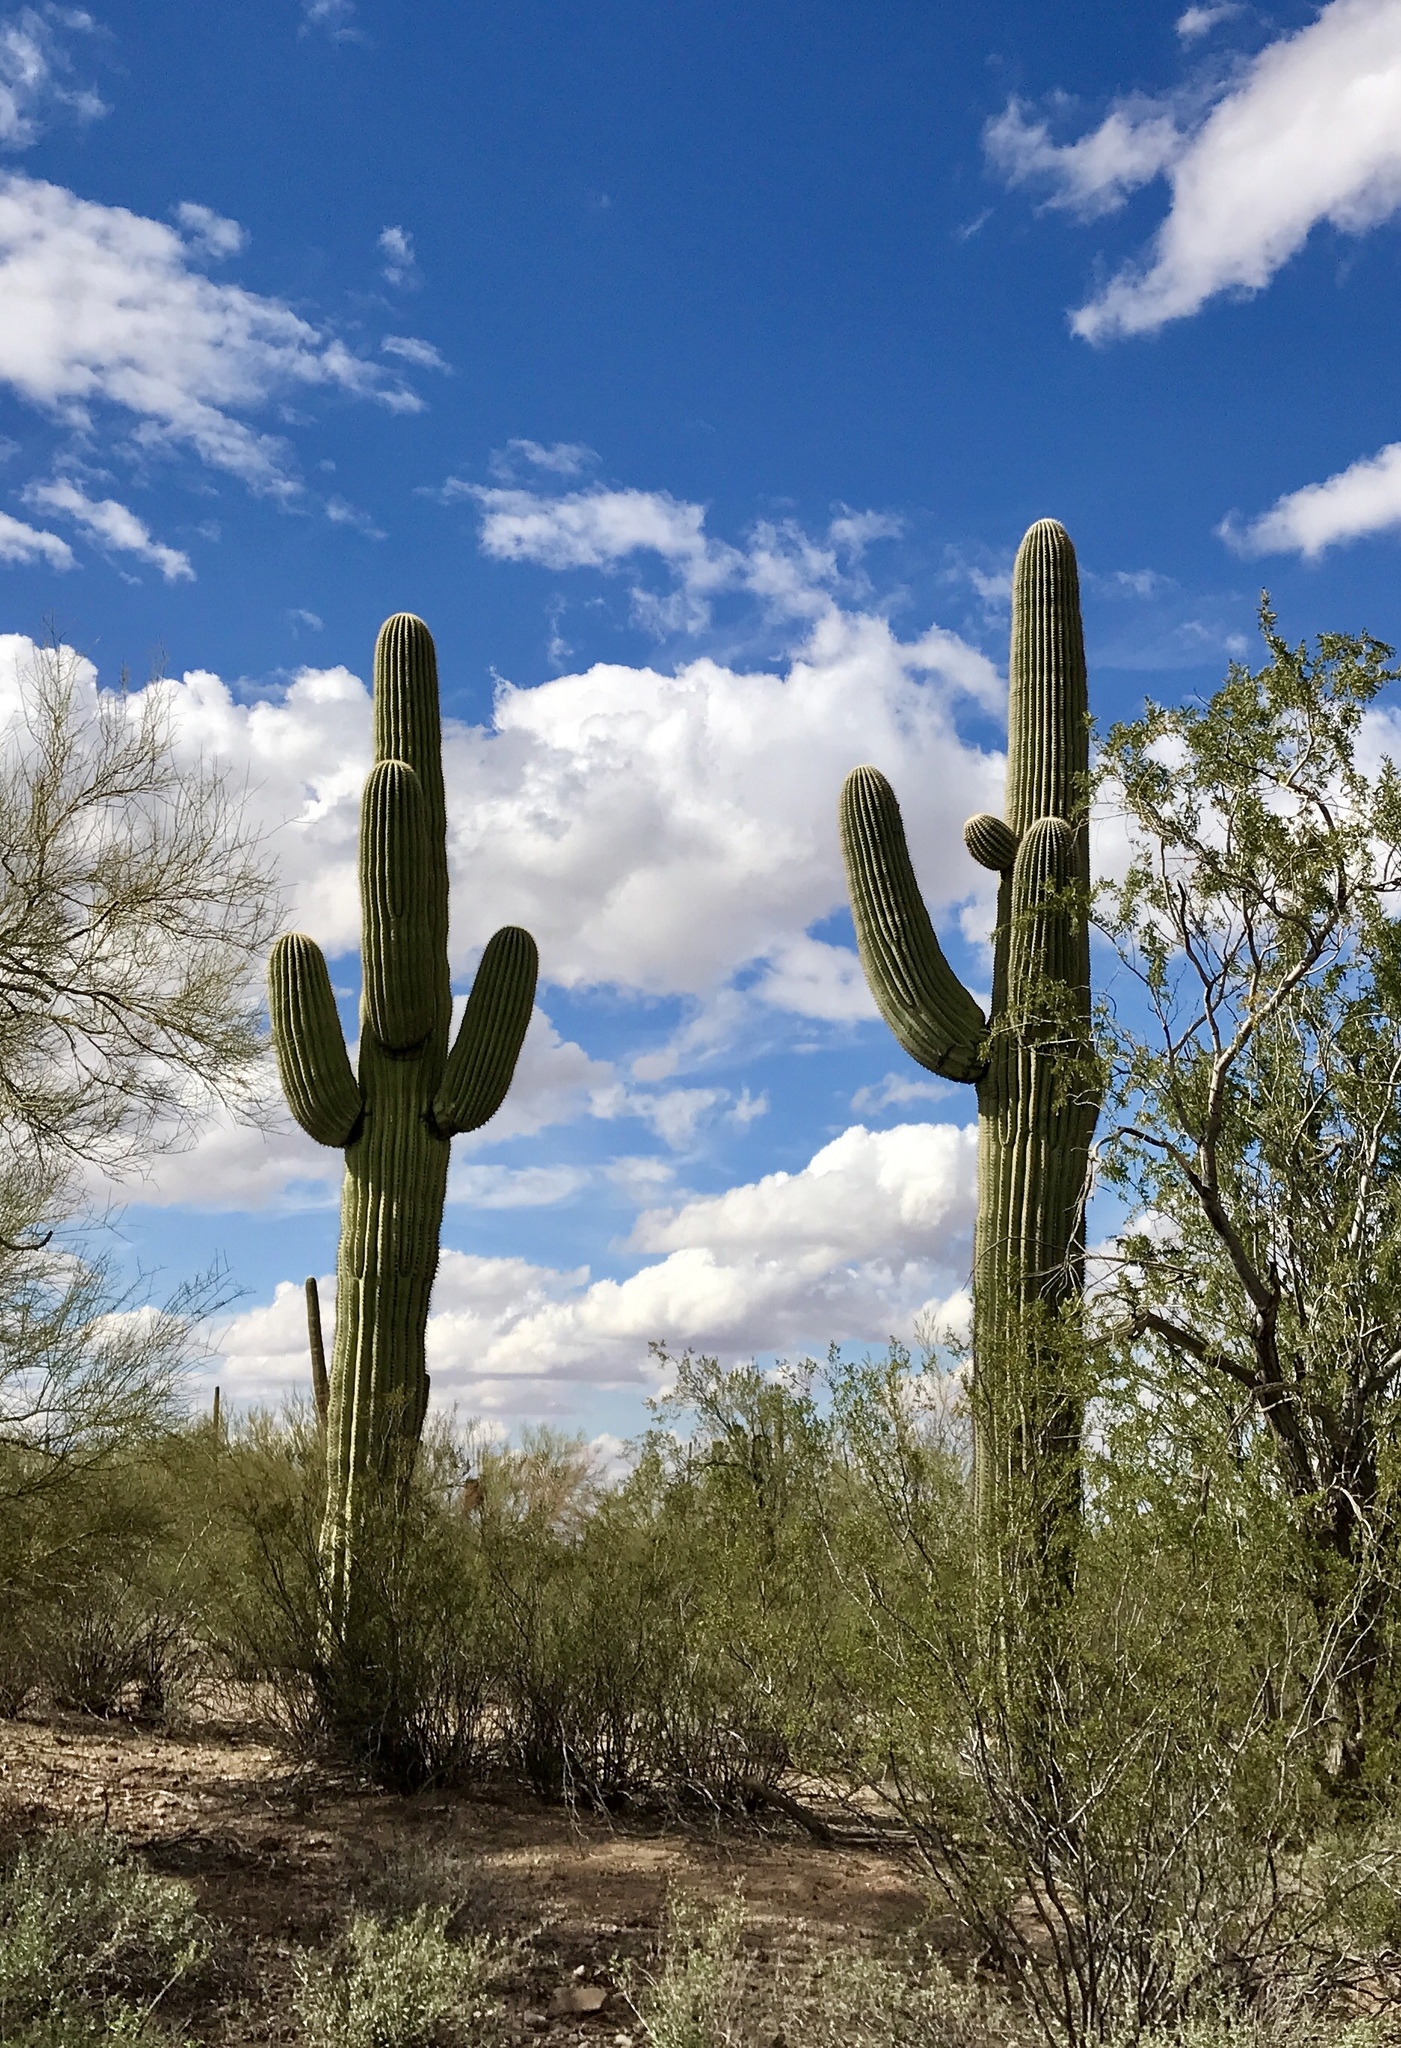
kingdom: Plantae
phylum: Tracheophyta
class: Magnoliopsida
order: Caryophyllales
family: Cactaceae
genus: Carnegiea
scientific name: Carnegiea gigantea
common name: Saguaro
